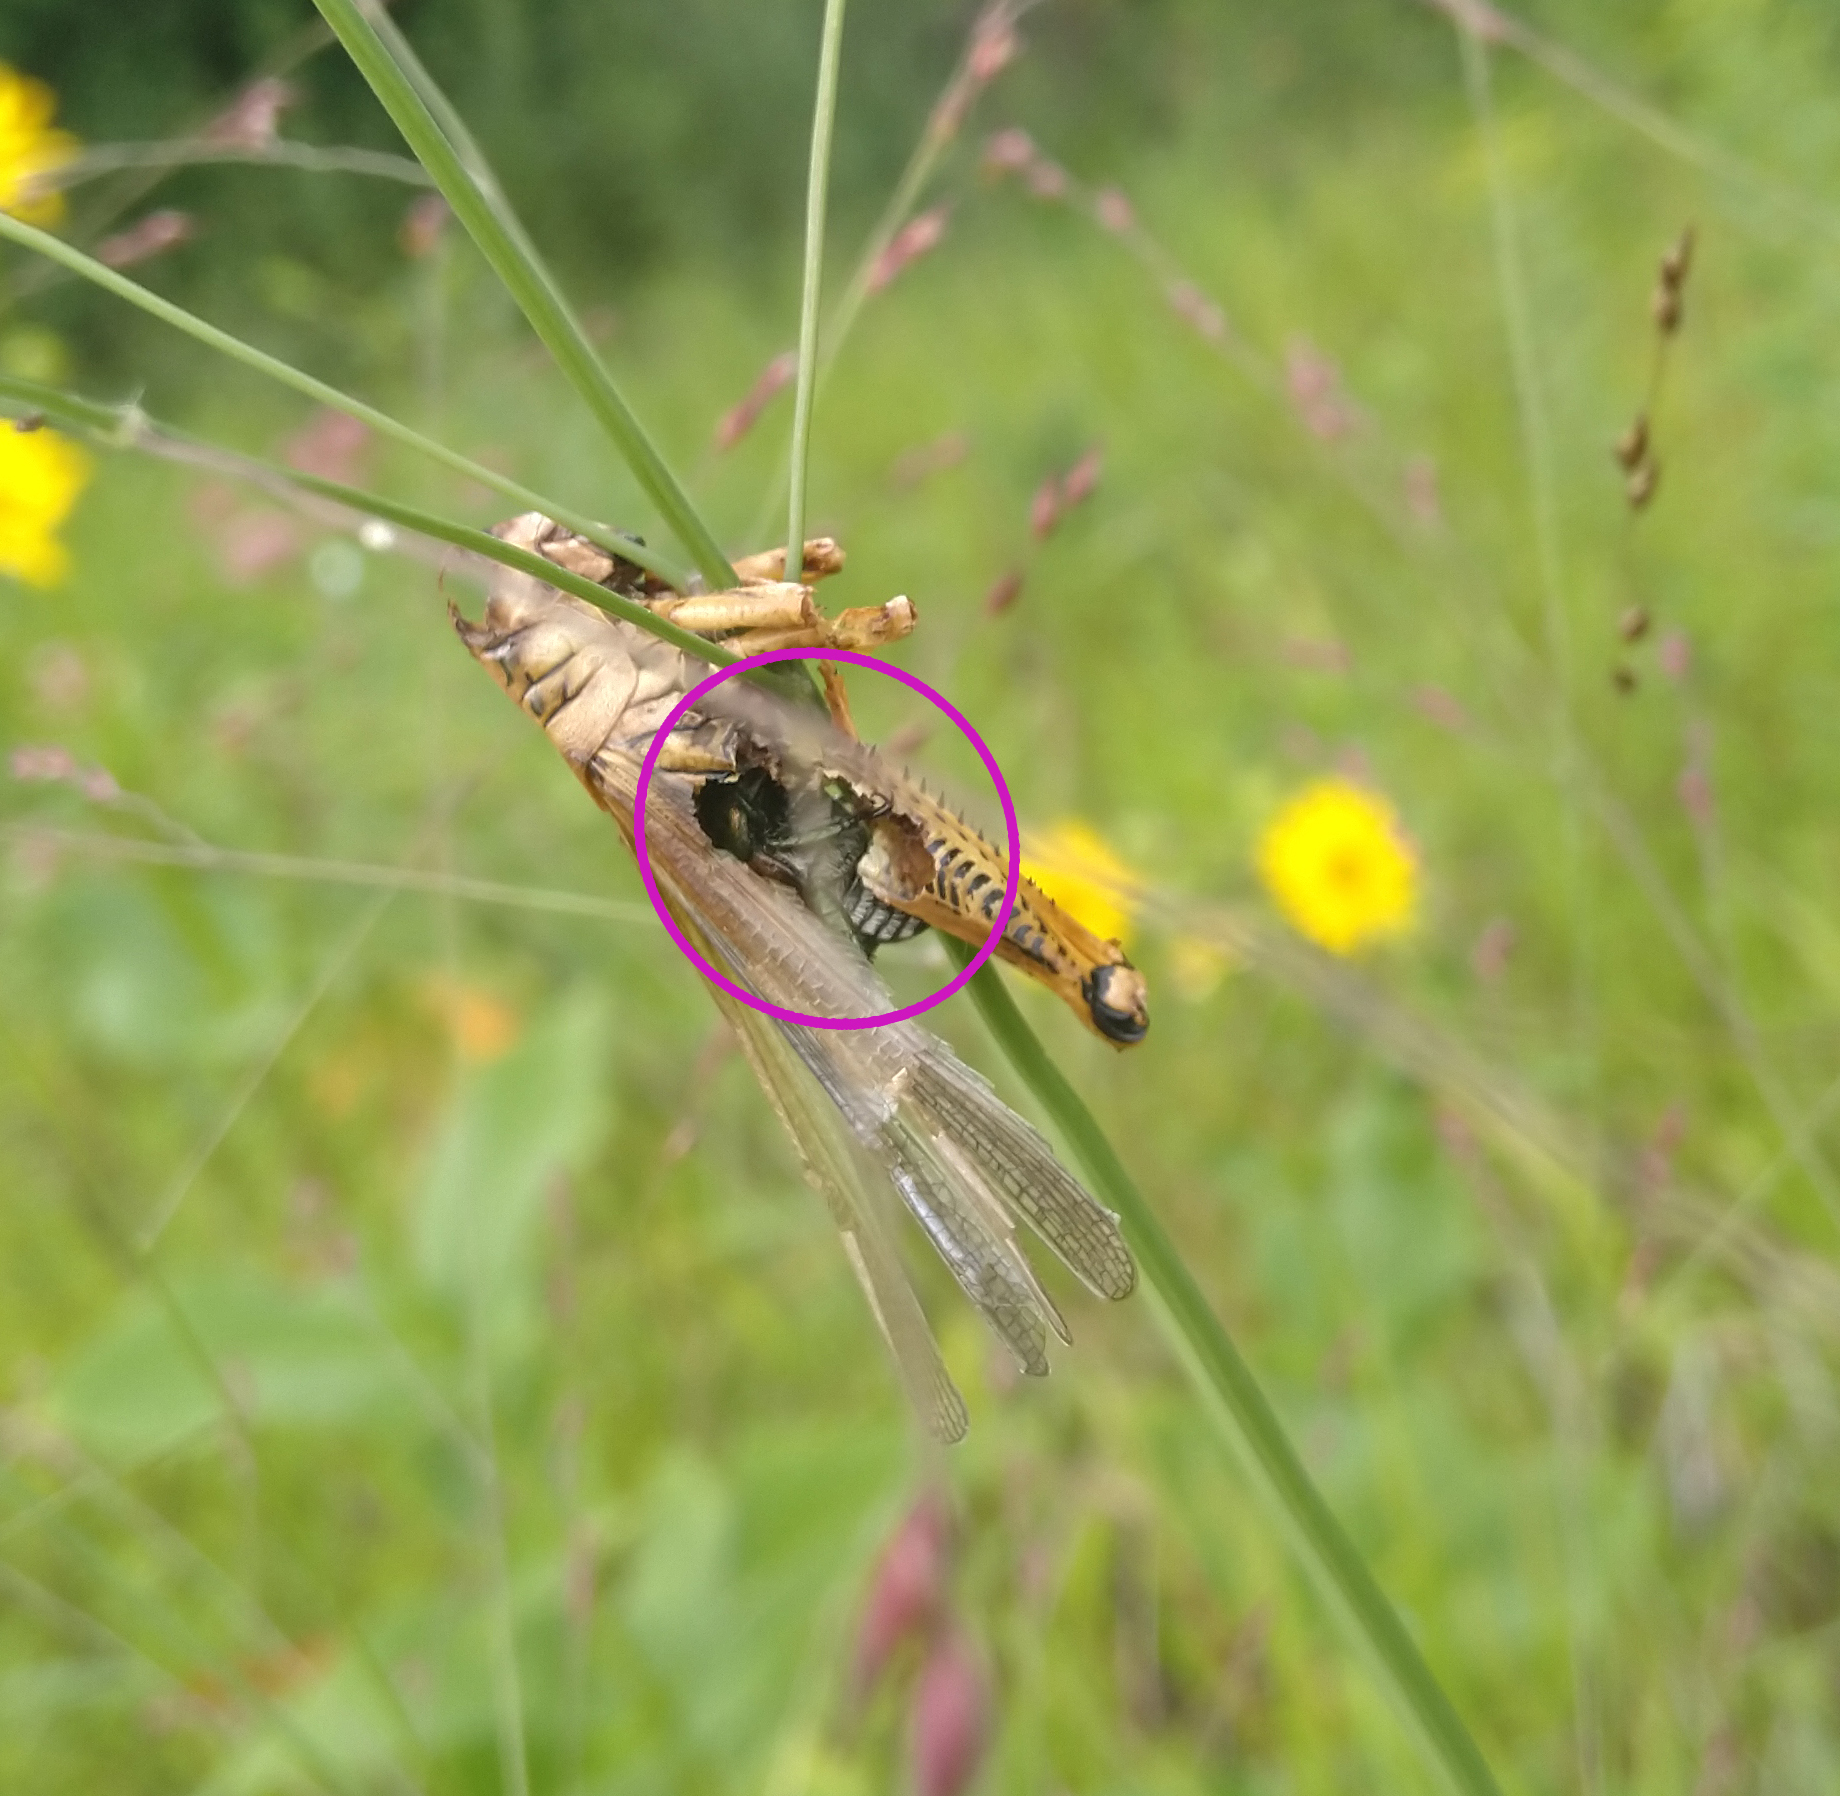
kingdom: Animalia
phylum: Arthropoda
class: Insecta
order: Coleoptera
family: Scarabaeidae
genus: Popillia
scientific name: Popillia japonica
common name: Japanese beetle
